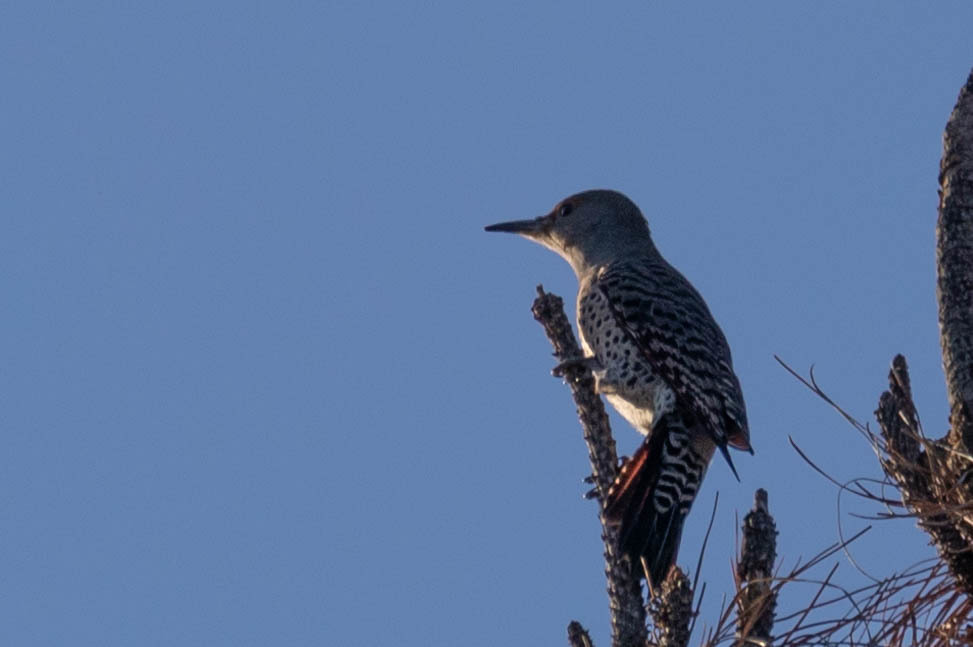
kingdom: Animalia
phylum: Chordata
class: Aves
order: Piciformes
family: Picidae
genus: Colaptes
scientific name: Colaptes auratus
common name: Northern flicker
